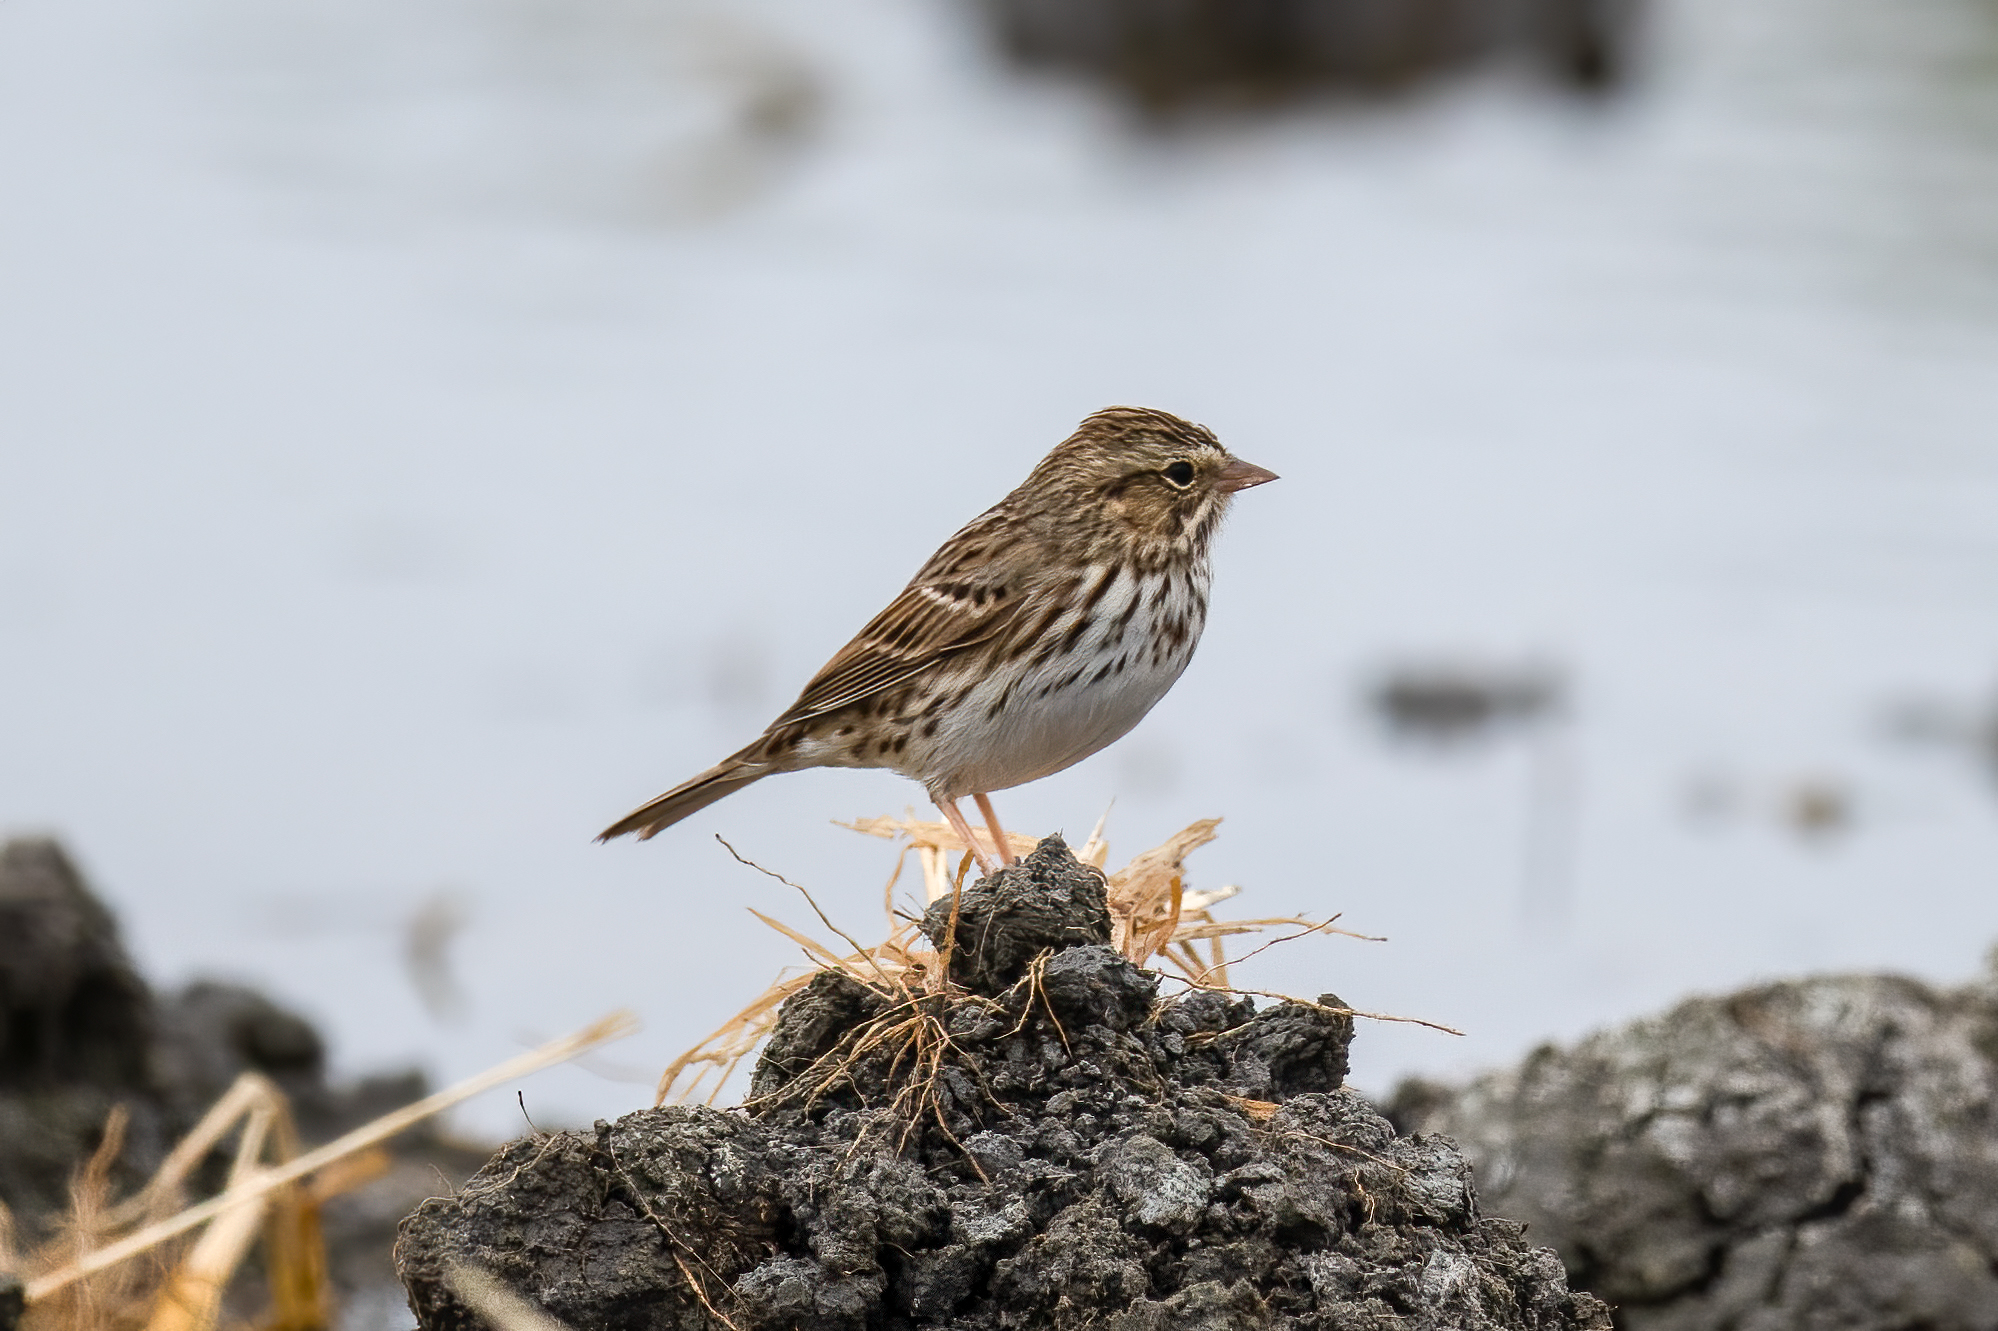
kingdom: Animalia
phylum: Chordata
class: Aves
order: Passeriformes
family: Passerellidae
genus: Passerculus
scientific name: Passerculus sandwichensis
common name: Savannah sparrow
